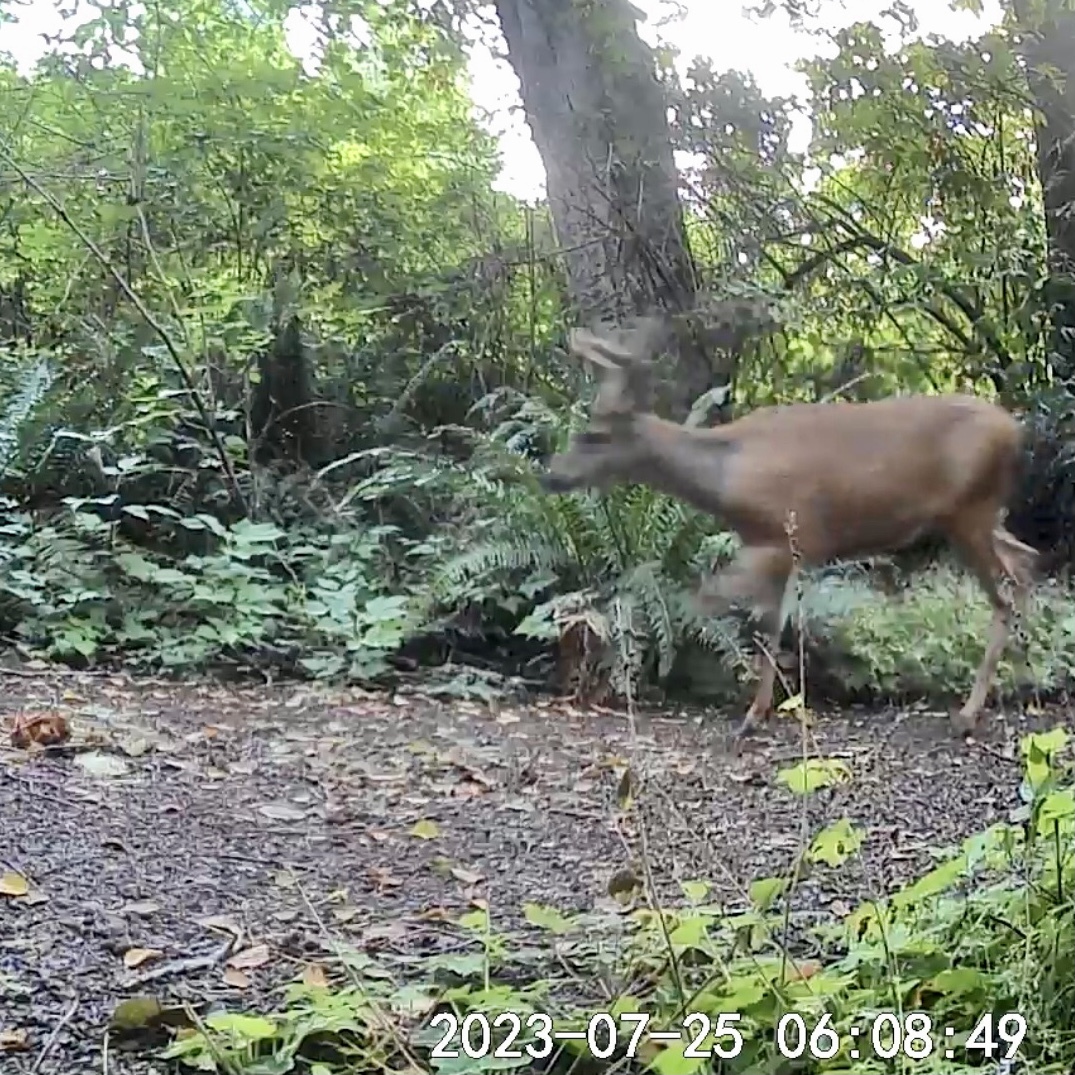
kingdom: Animalia
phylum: Chordata
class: Mammalia
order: Artiodactyla
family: Cervidae
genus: Odocoileus
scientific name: Odocoileus hemionus
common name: Mule deer
